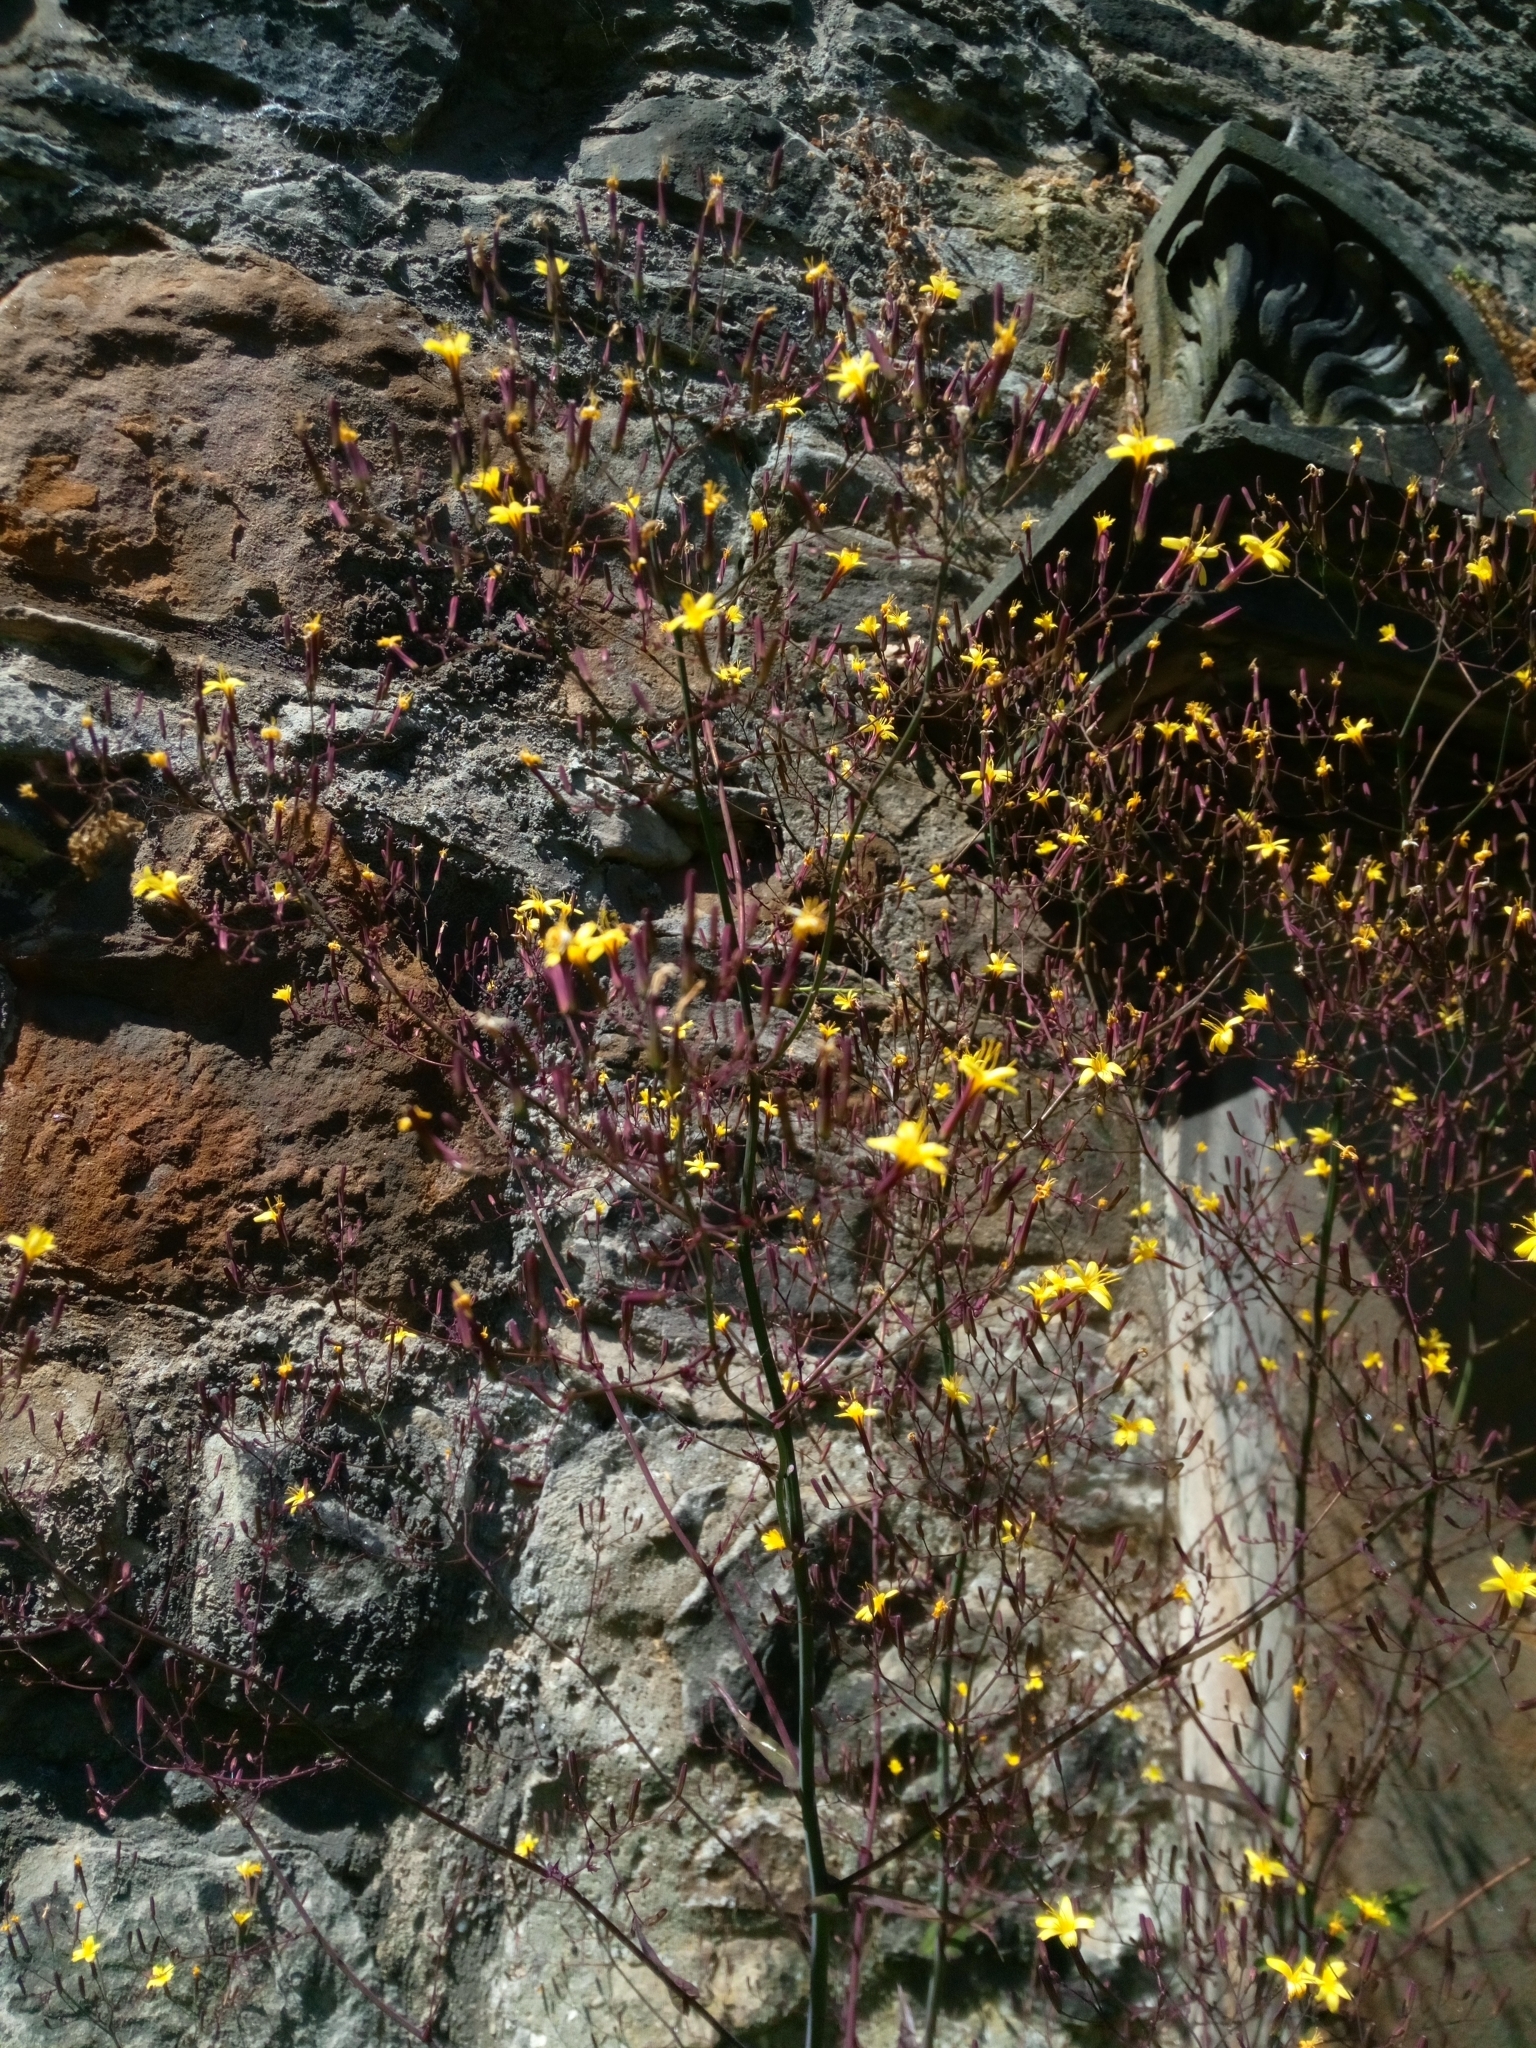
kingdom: Plantae
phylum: Tracheophyta
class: Magnoliopsida
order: Asterales
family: Asteraceae
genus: Mycelis
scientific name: Mycelis muralis
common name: Wall lettuce
